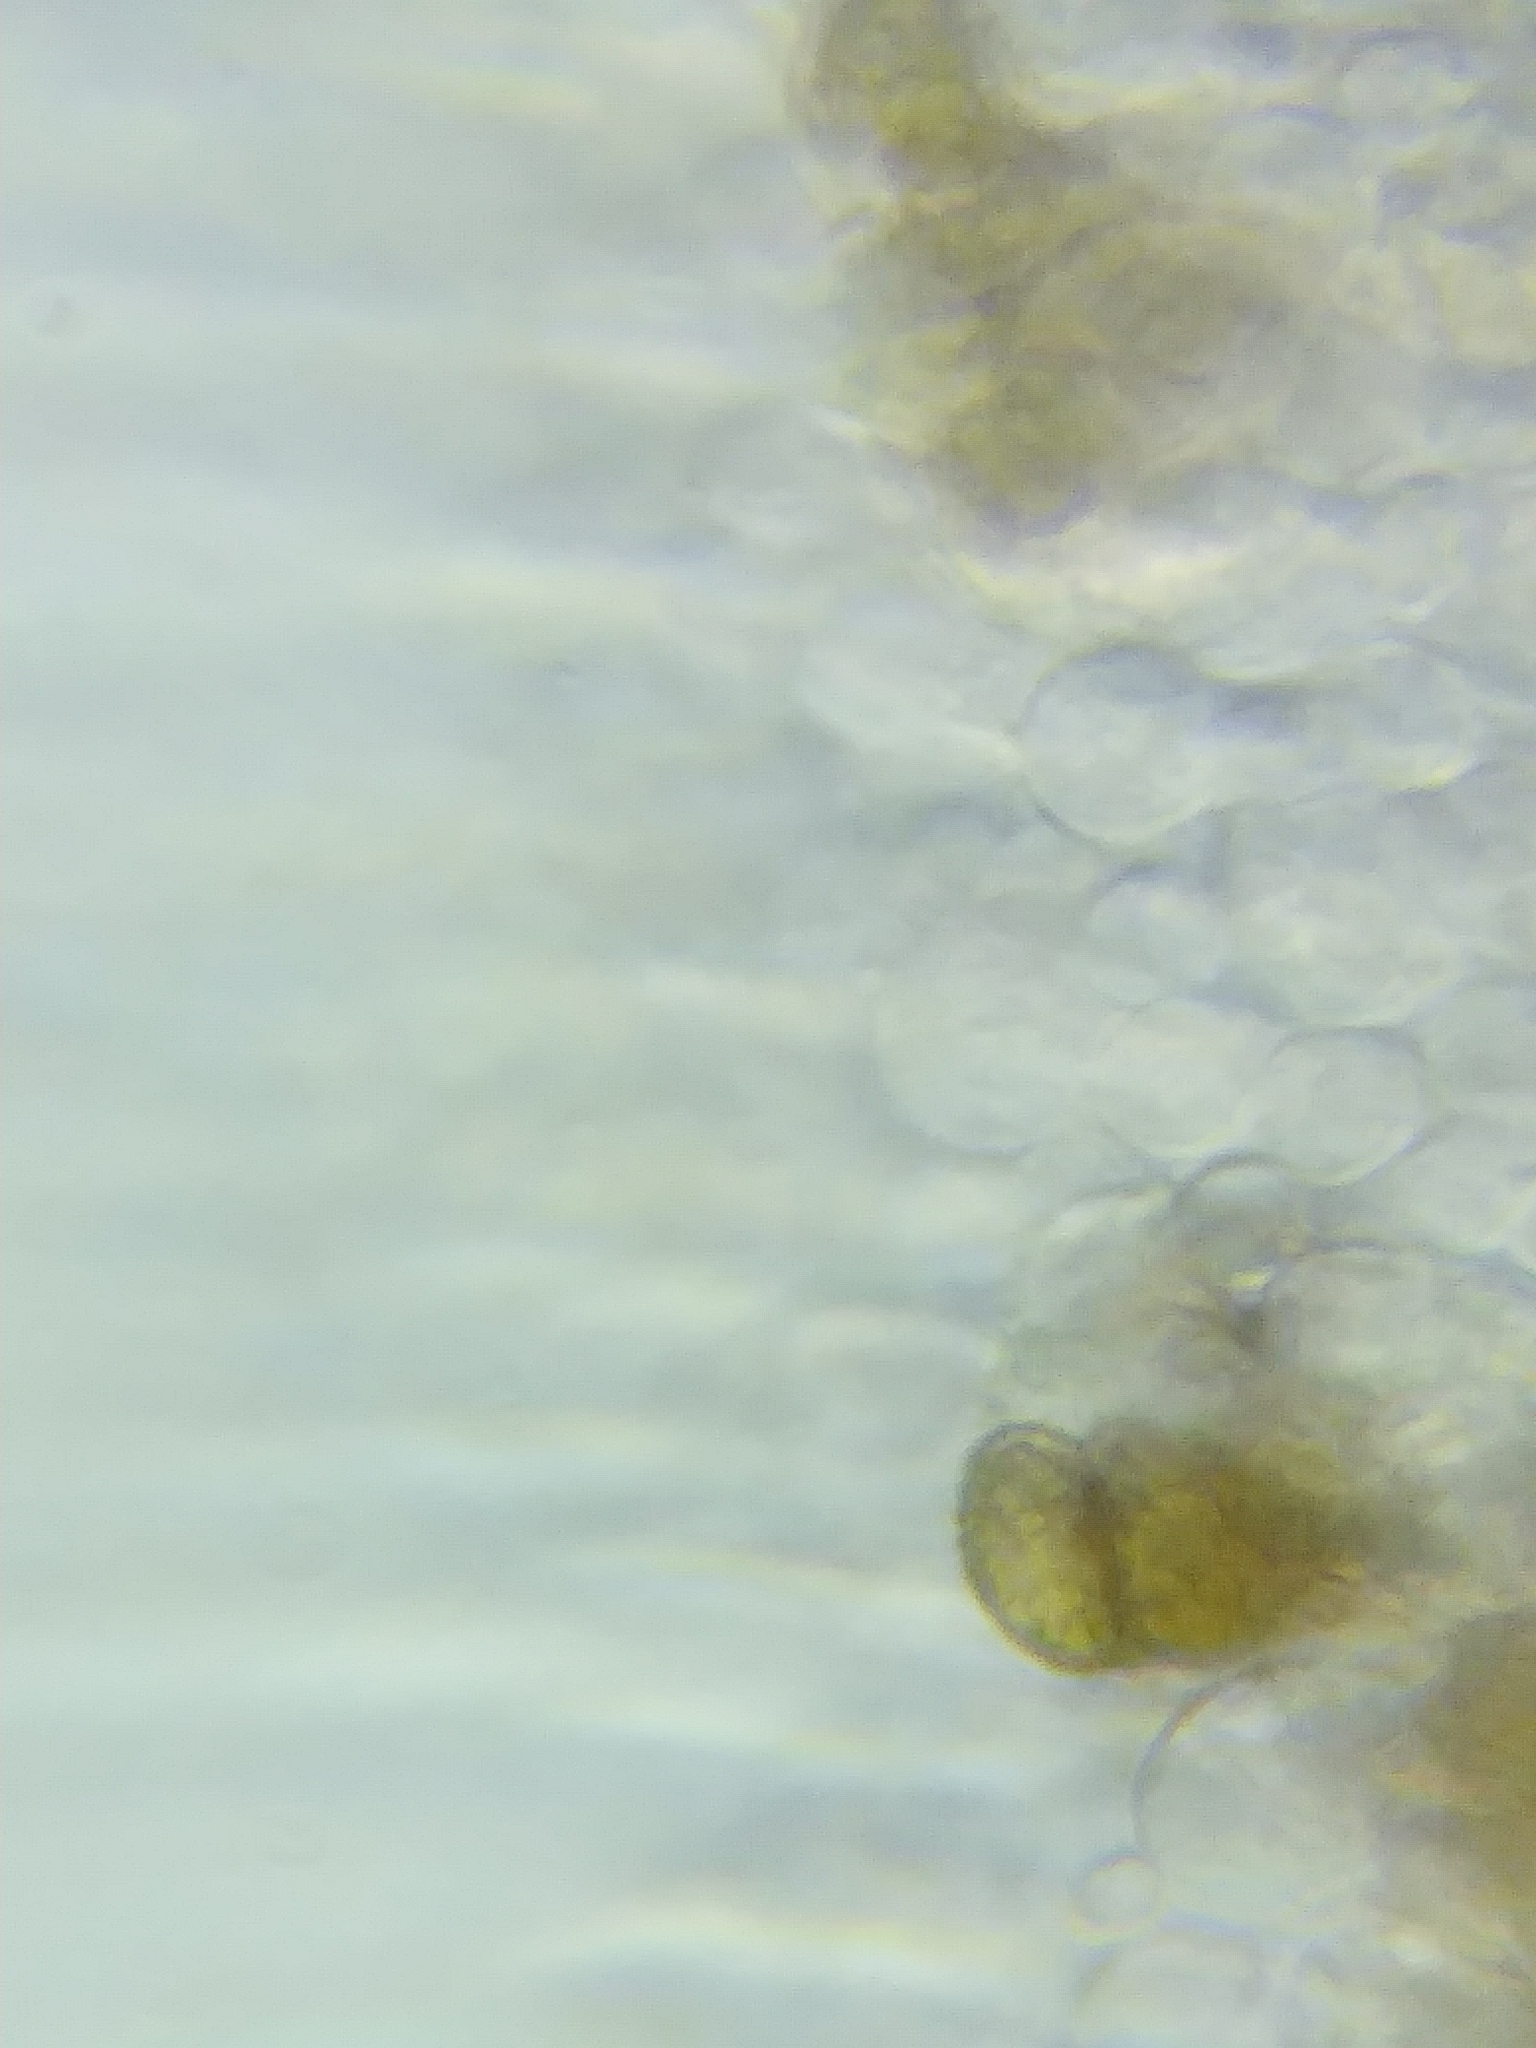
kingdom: Fungi
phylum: Basidiomycota
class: Agaricomycetes
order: Agaricales
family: Cortinariaceae
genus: Cortinarius
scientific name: Cortinarius torvus
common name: Stocking webcap
